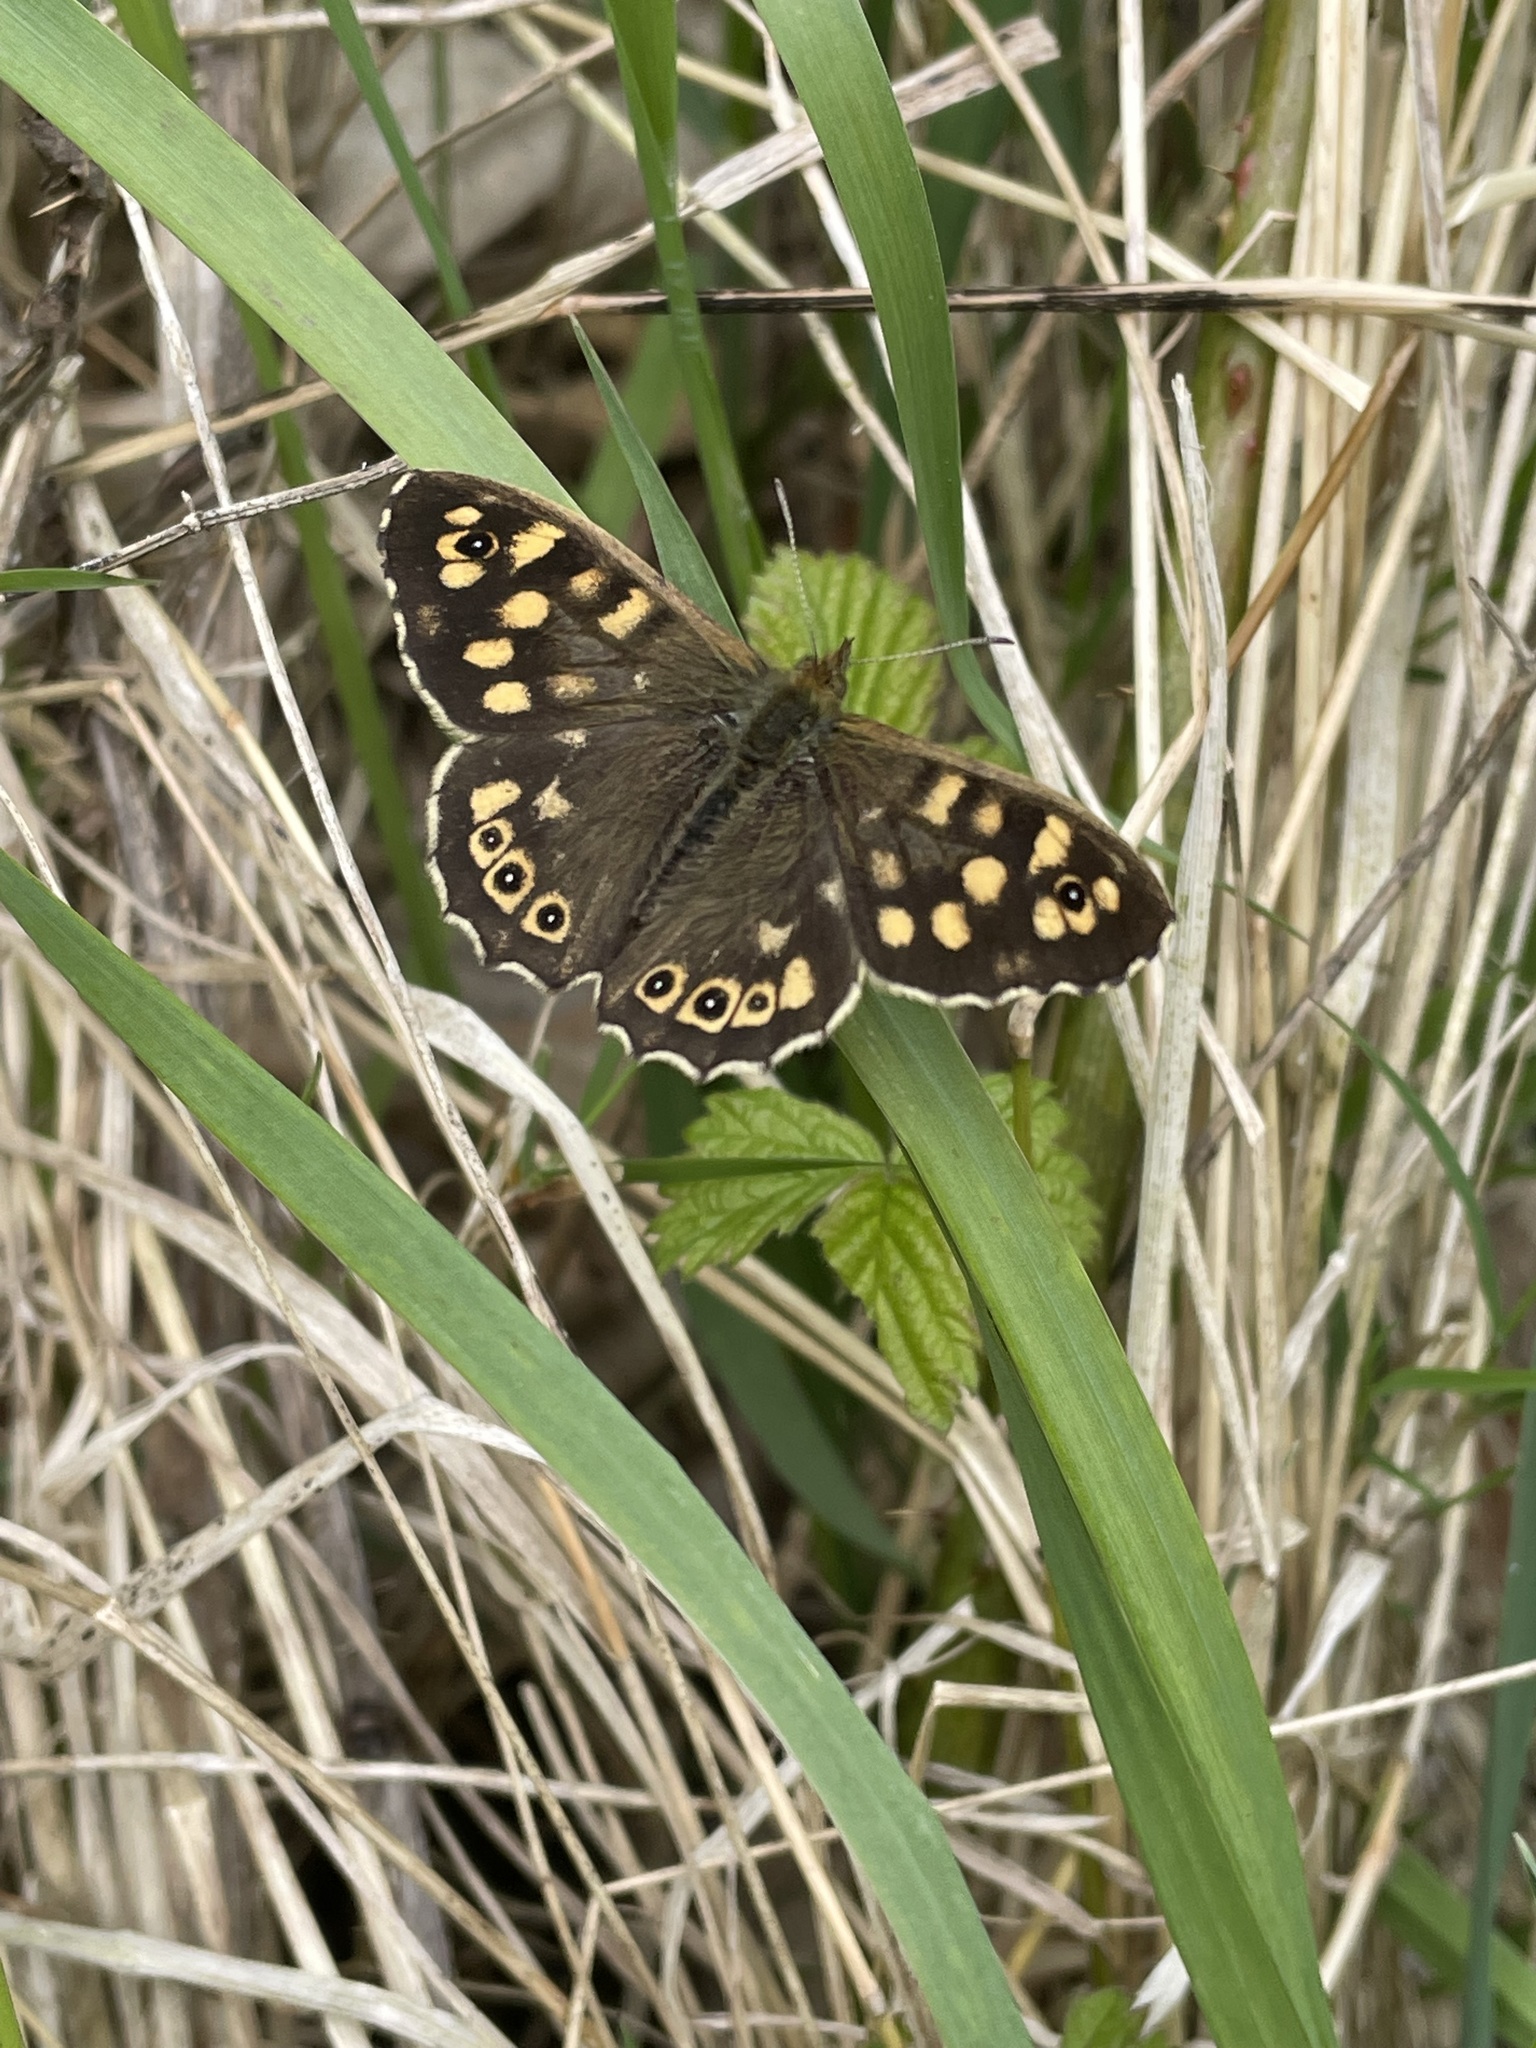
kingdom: Animalia
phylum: Arthropoda
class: Insecta
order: Lepidoptera
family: Nymphalidae
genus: Pararge
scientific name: Pararge aegeria
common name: Speckled wood
